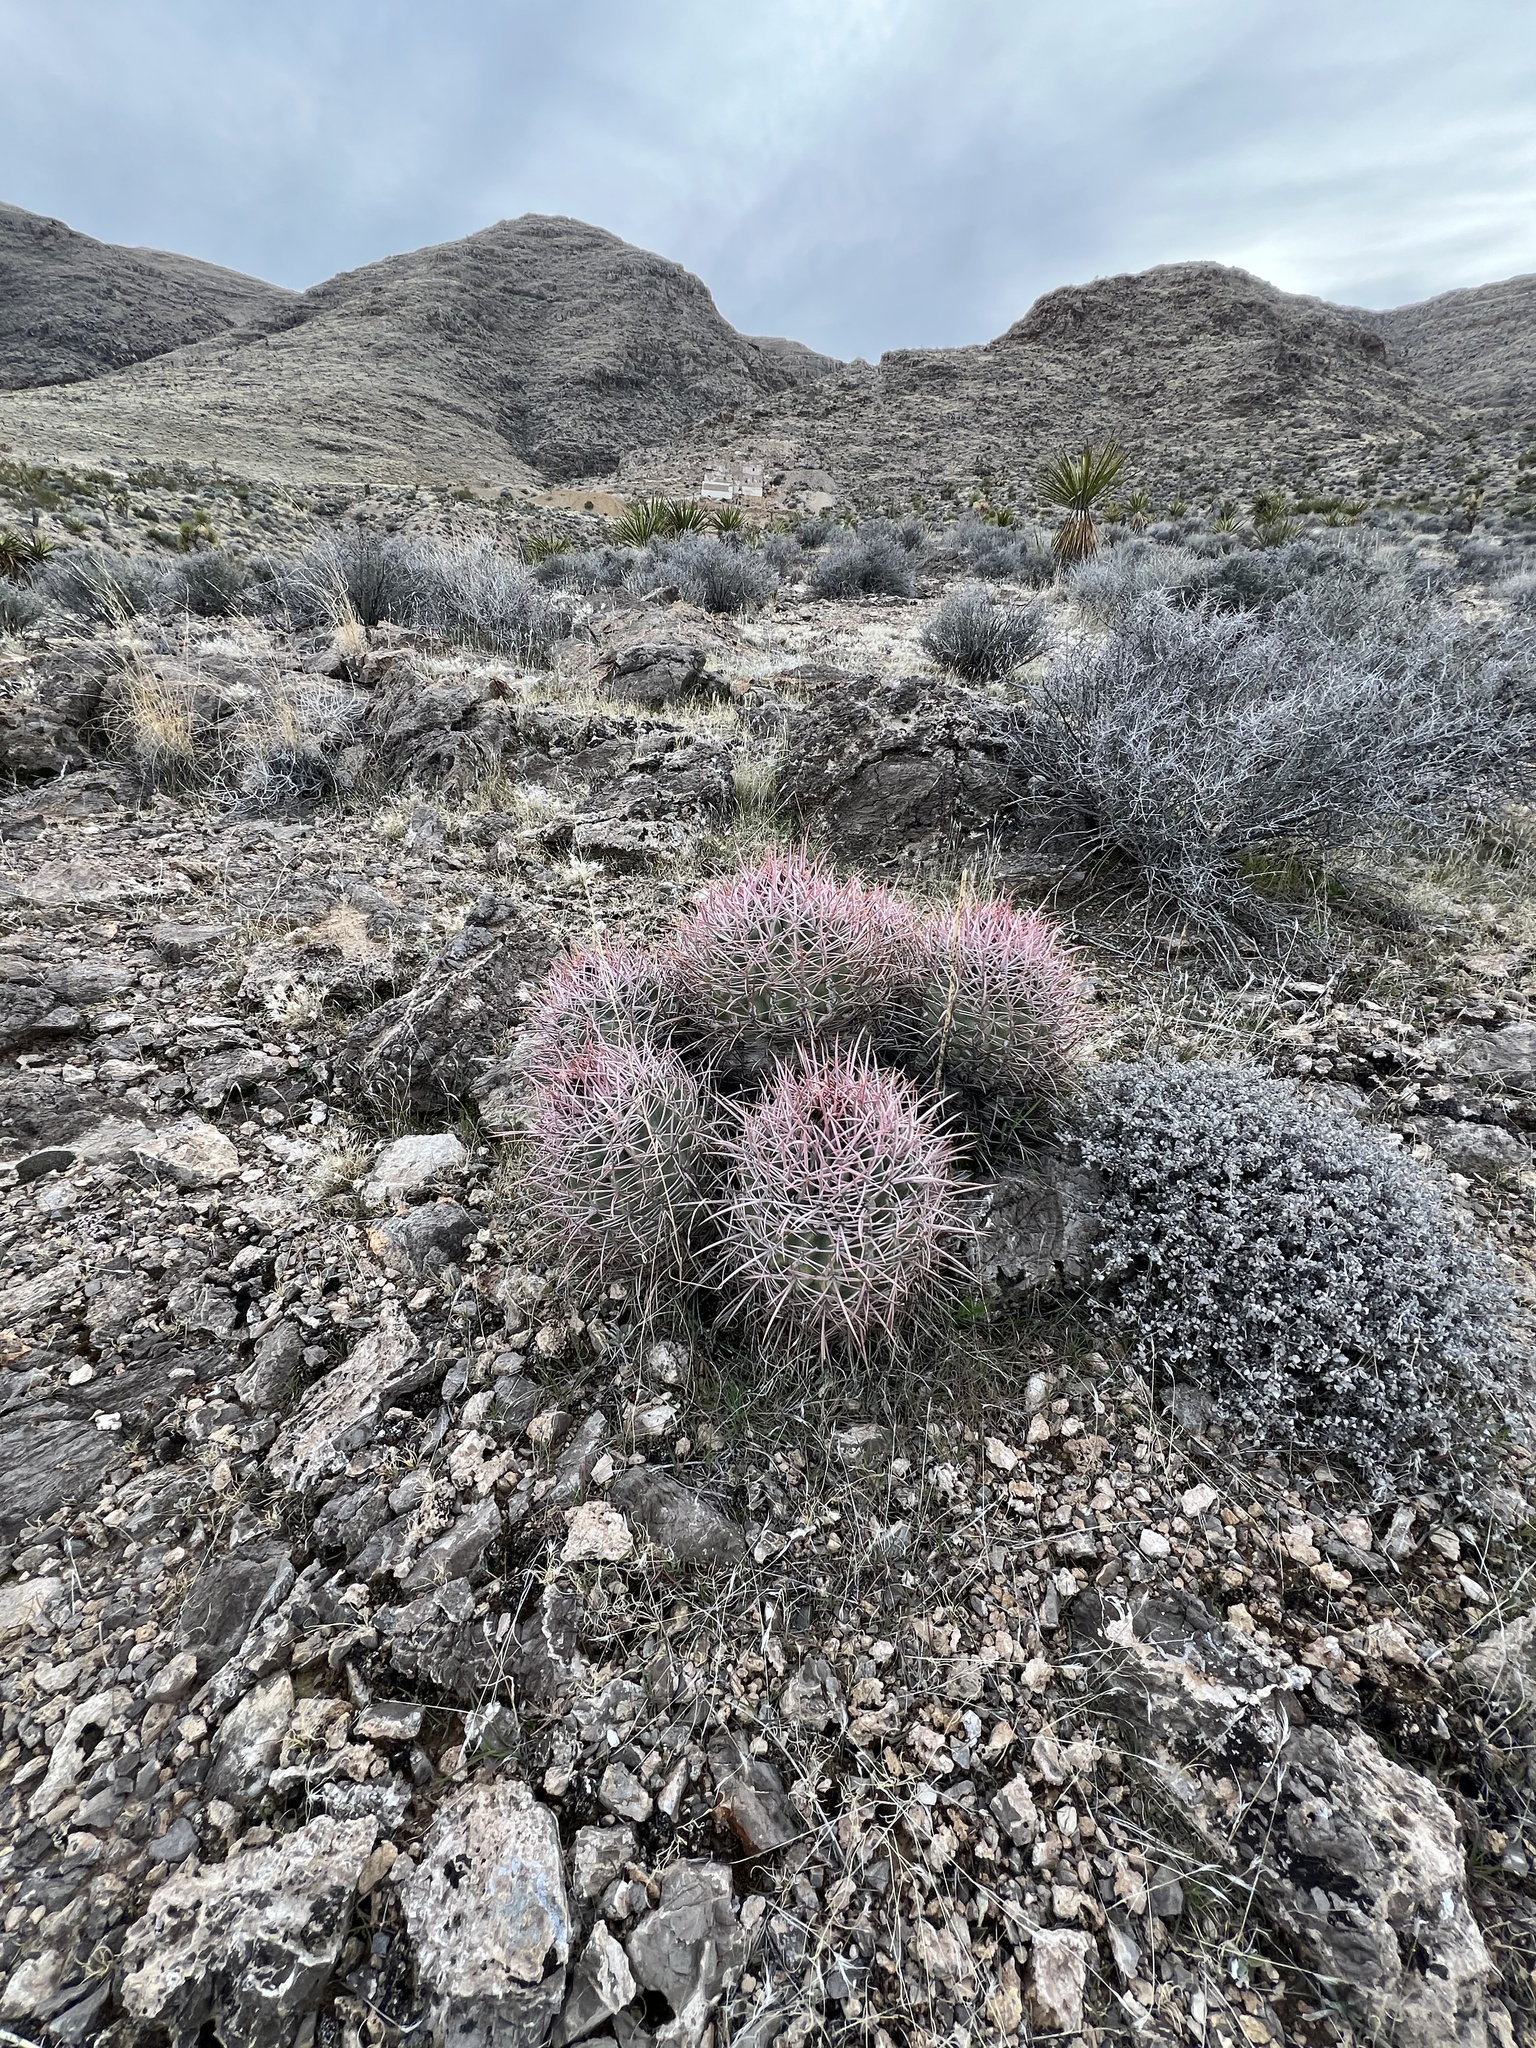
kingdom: Plantae
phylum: Tracheophyta
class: Magnoliopsida
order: Caryophyllales
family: Cactaceae
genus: Echinocactus
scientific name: Echinocactus polycephalus
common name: Cottontop cactus
